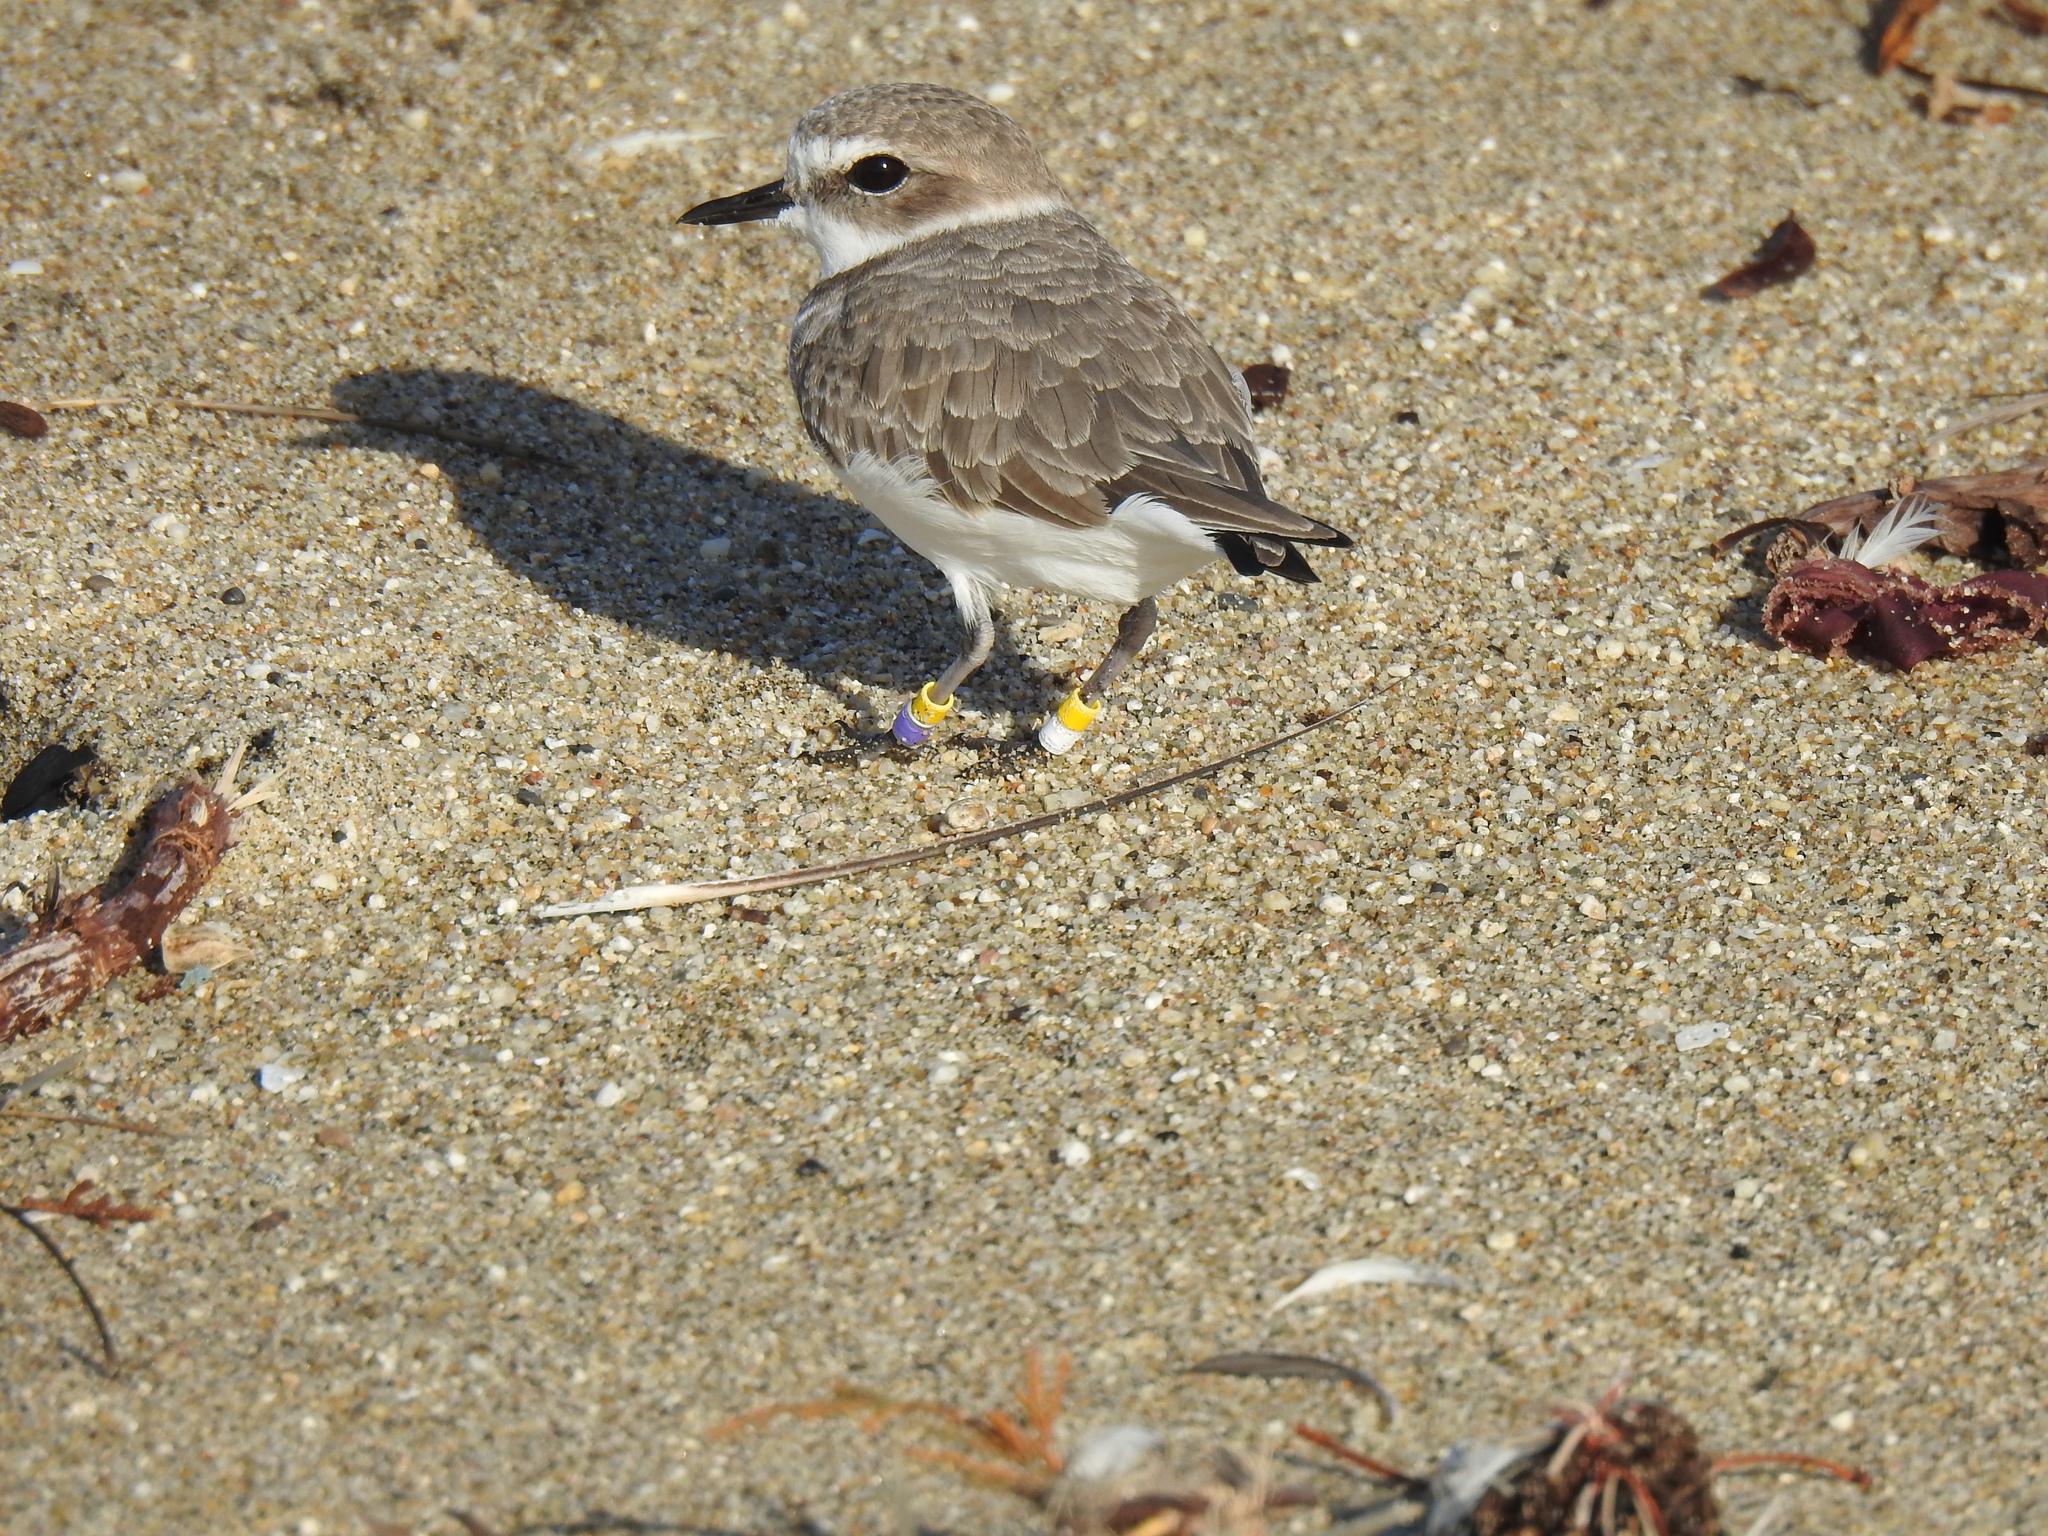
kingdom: Animalia
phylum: Chordata
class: Aves
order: Charadriiformes
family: Charadriidae
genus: Anarhynchus
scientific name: Anarhynchus
